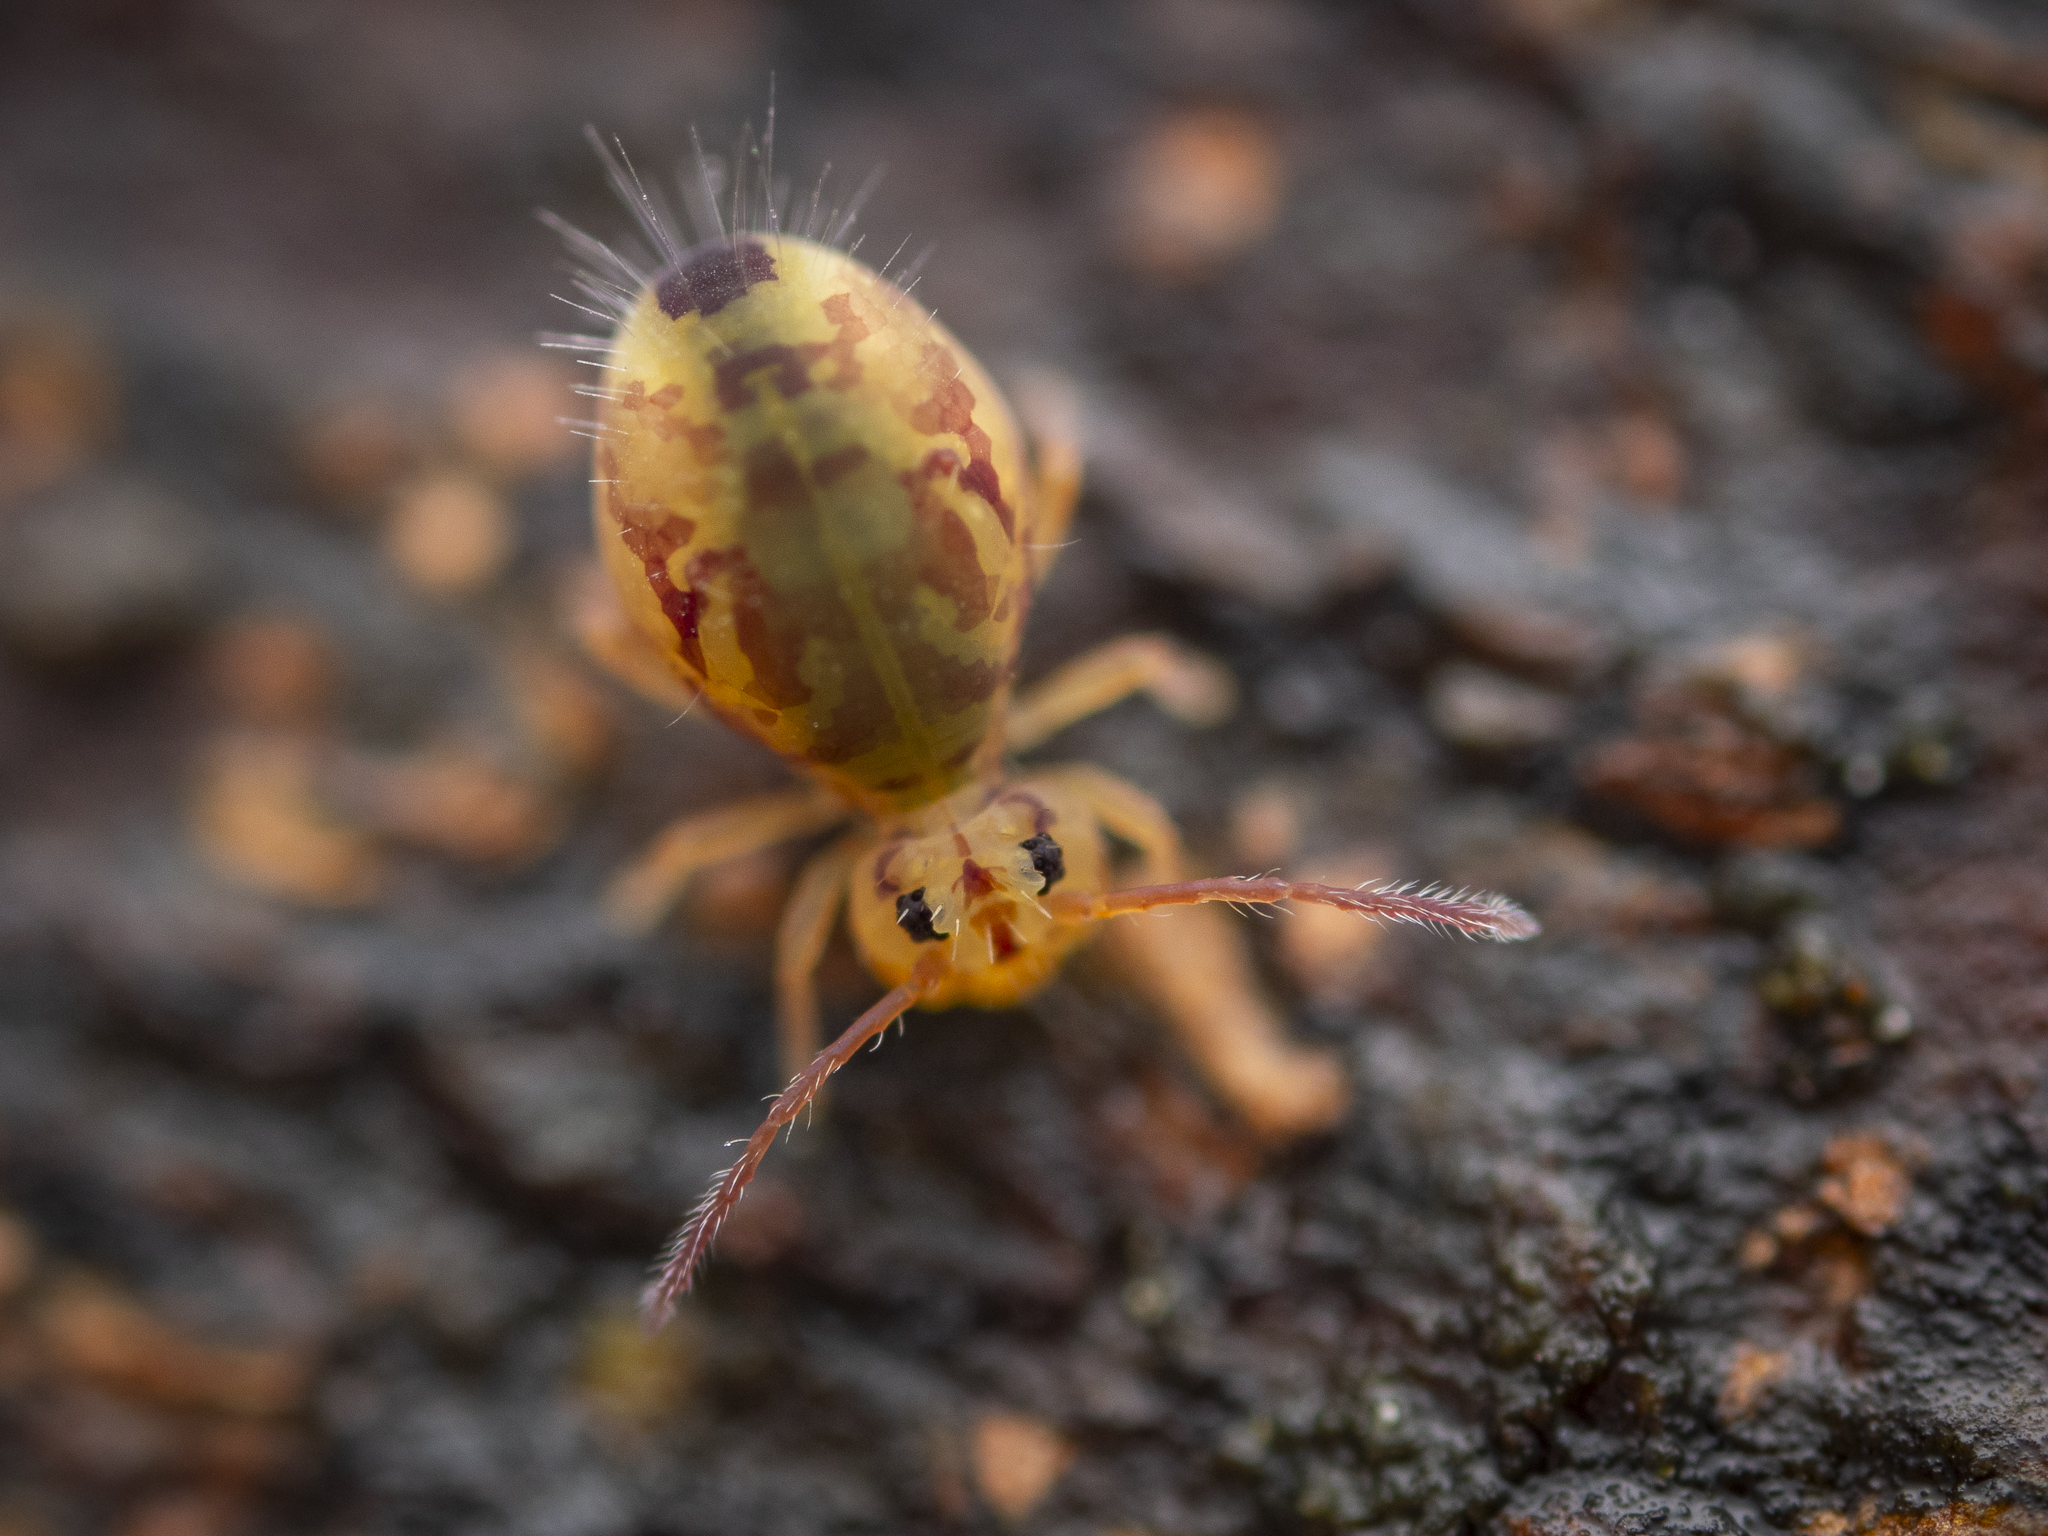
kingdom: Animalia
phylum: Arthropoda
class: Collembola
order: Symphypleona
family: Dicyrtomidae
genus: Dicyrtomina
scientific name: Dicyrtomina ornata
